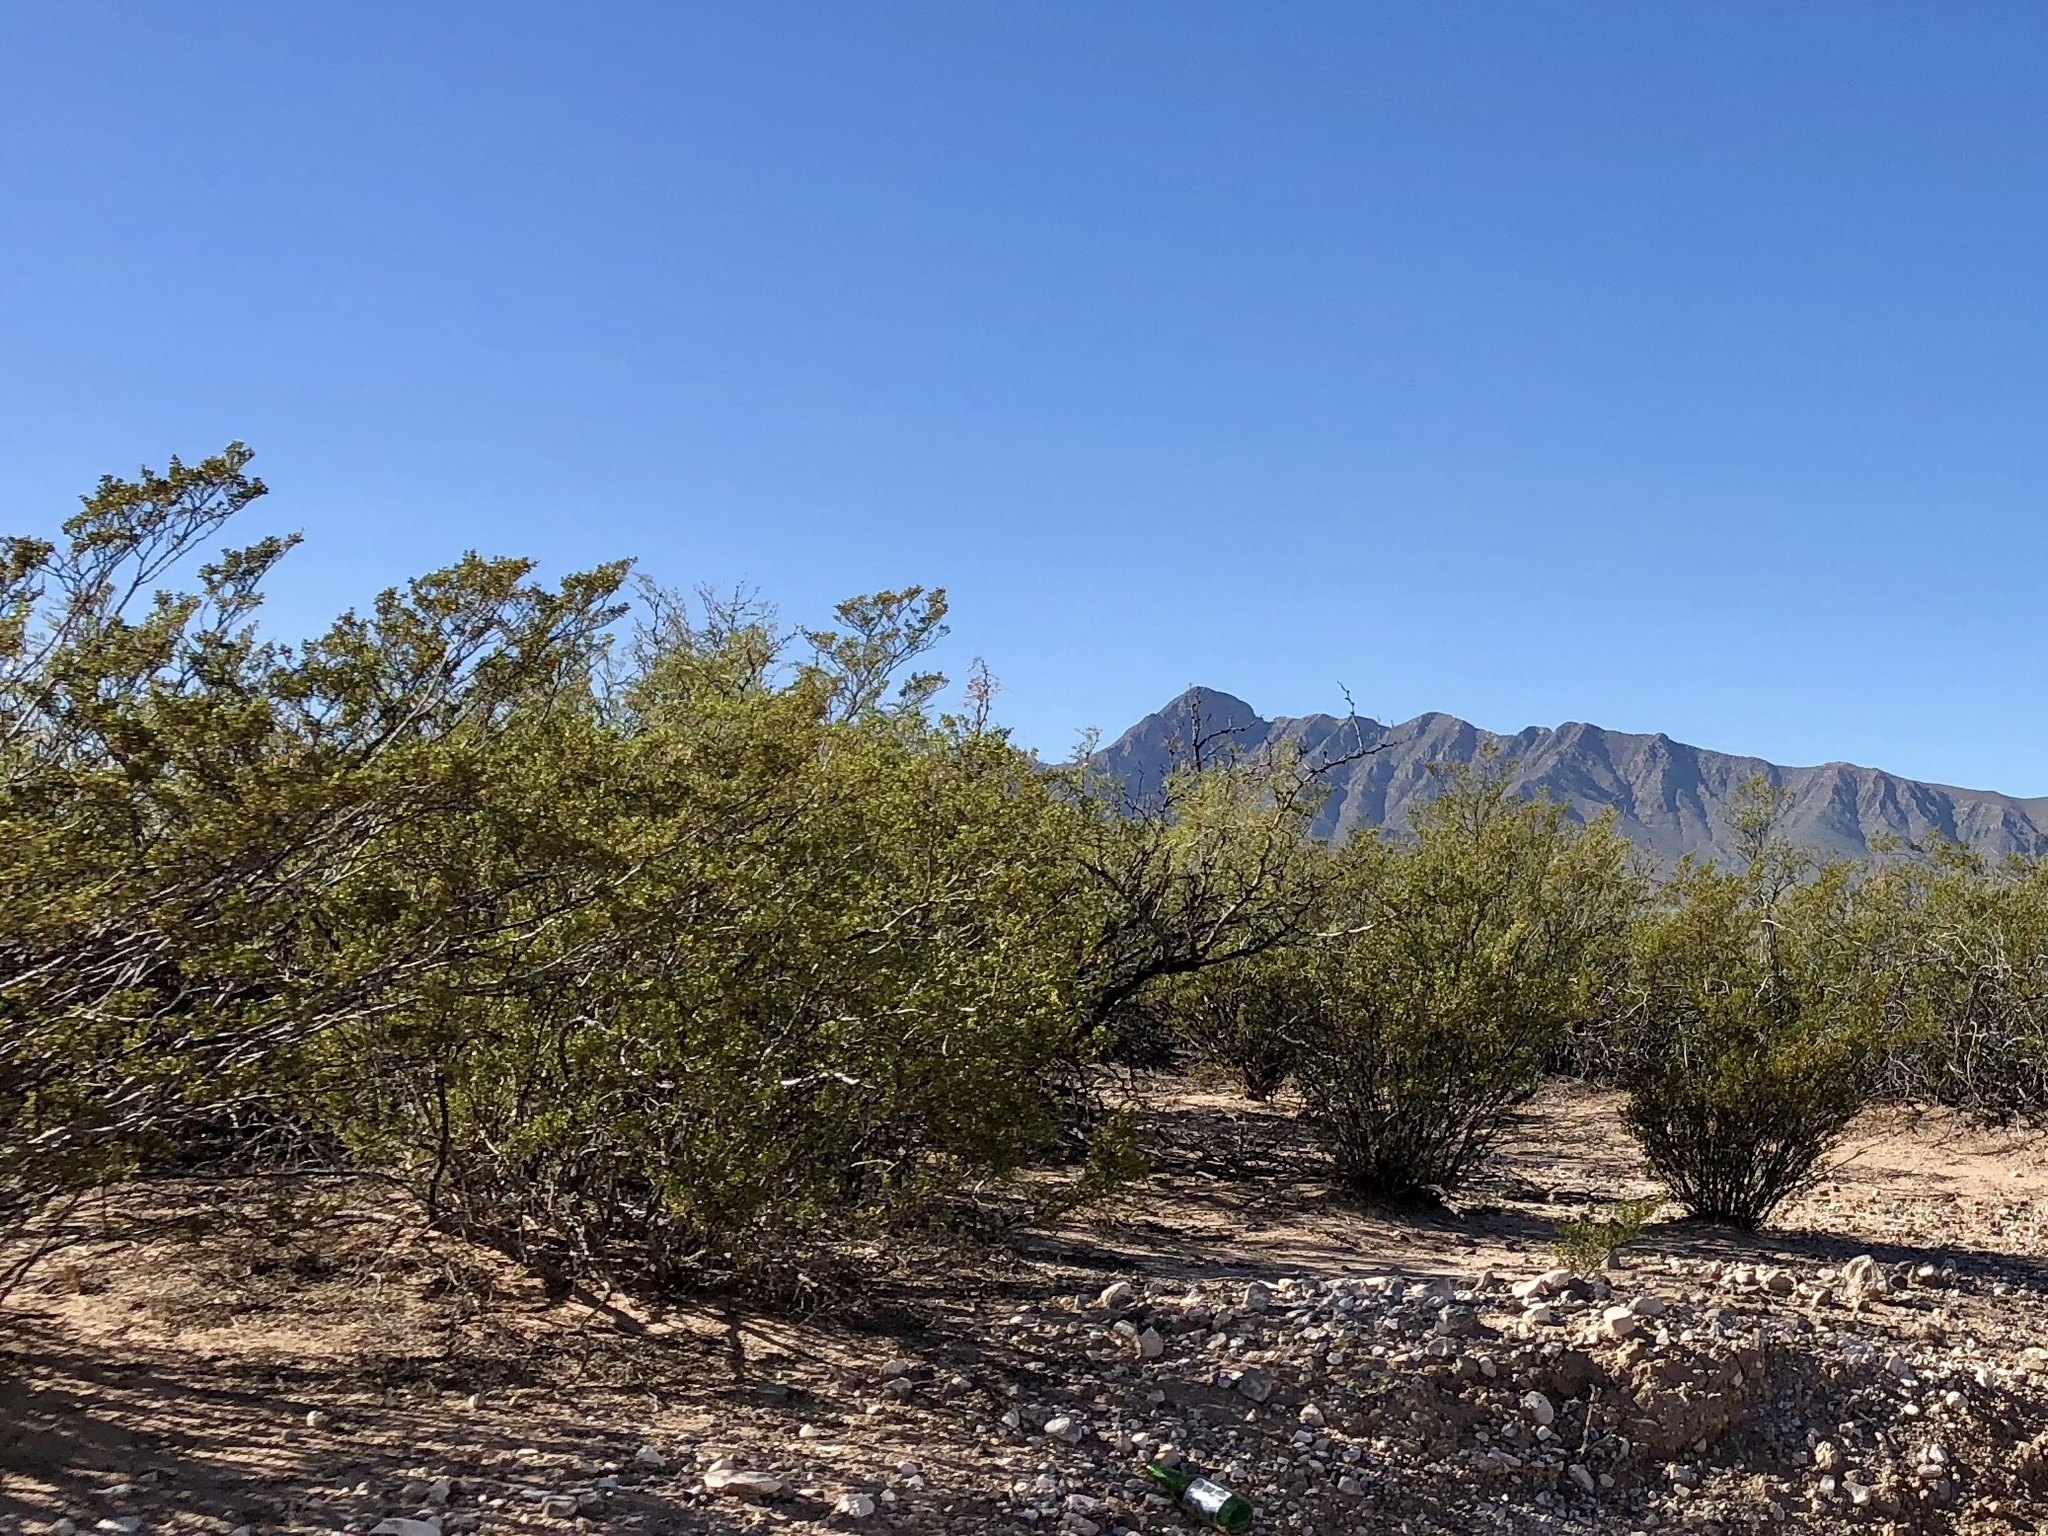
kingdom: Plantae
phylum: Tracheophyta
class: Magnoliopsida
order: Zygophyllales
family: Zygophyllaceae
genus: Larrea
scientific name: Larrea tridentata
